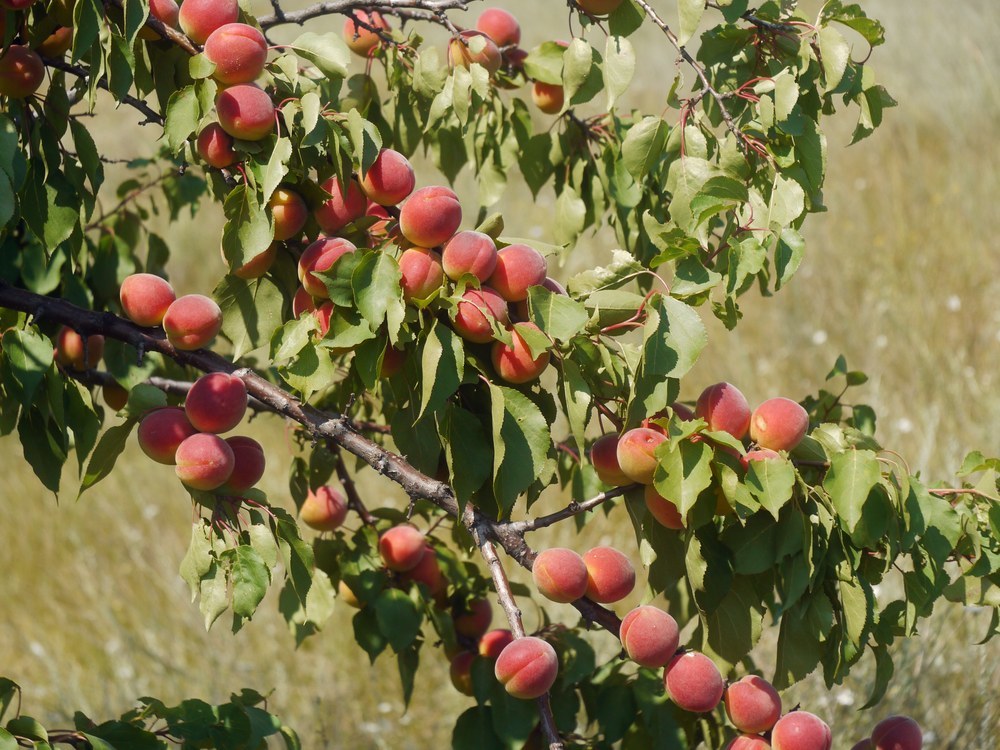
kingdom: Plantae
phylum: Tracheophyta
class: Magnoliopsida
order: Rosales
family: Rosaceae
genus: Prunus
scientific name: Prunus armeniaca
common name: Apricot
